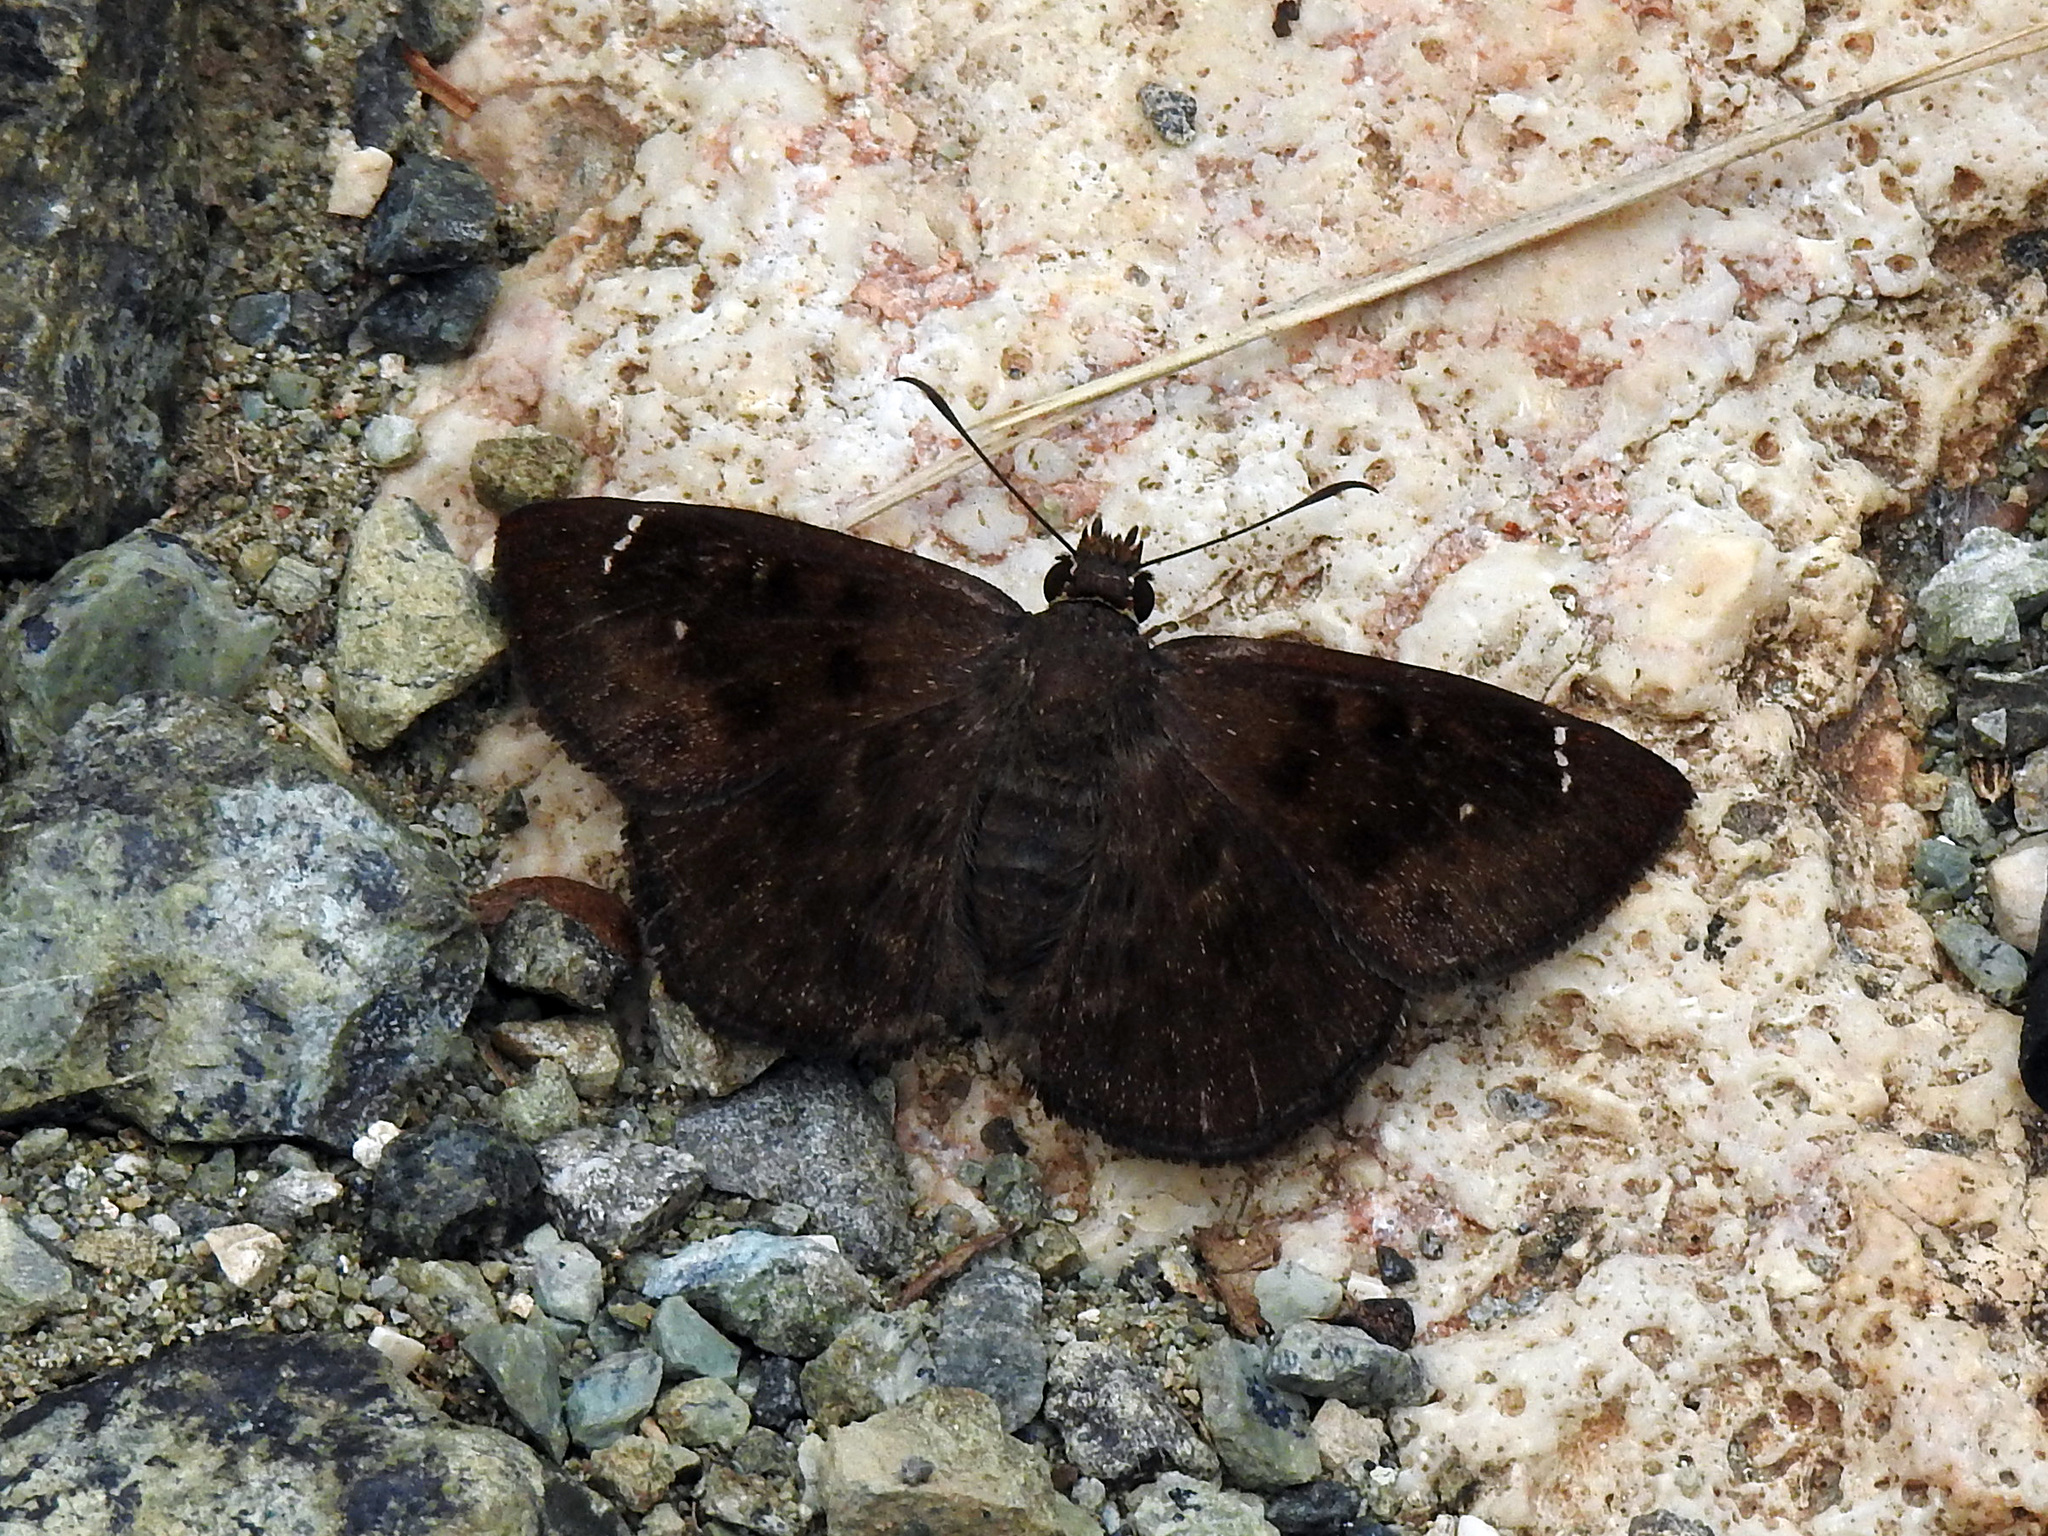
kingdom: Animalia
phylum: Arthropoda
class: Insecta
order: Lepidoptera
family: Hesperiidae
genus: Burca
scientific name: Burca braco
